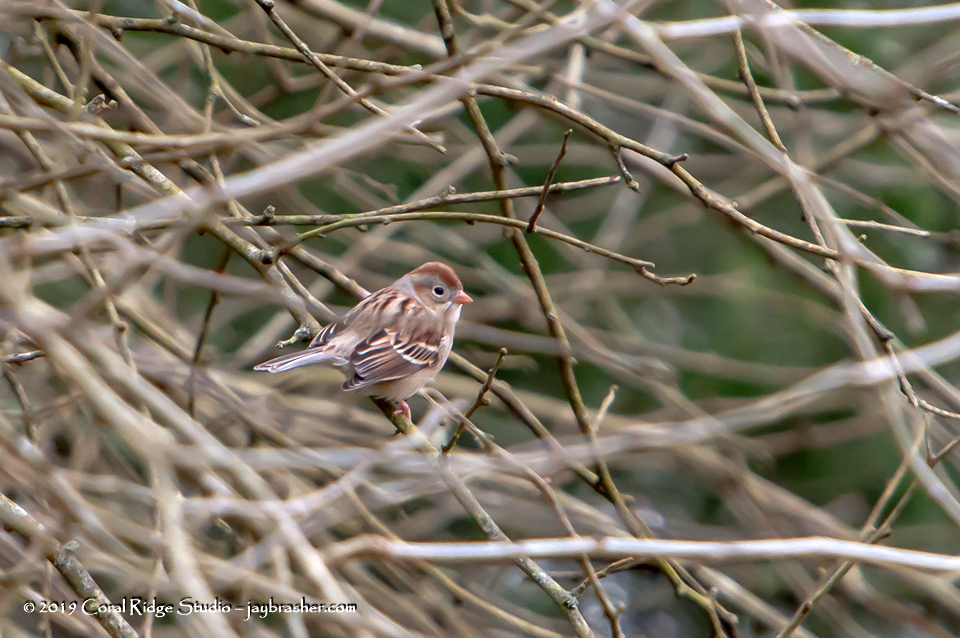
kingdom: Animalia
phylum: Chordata
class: Aves
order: Passeriformes
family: Passerellidae
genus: Spizella
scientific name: Spizella pusilla
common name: Field sparrow
